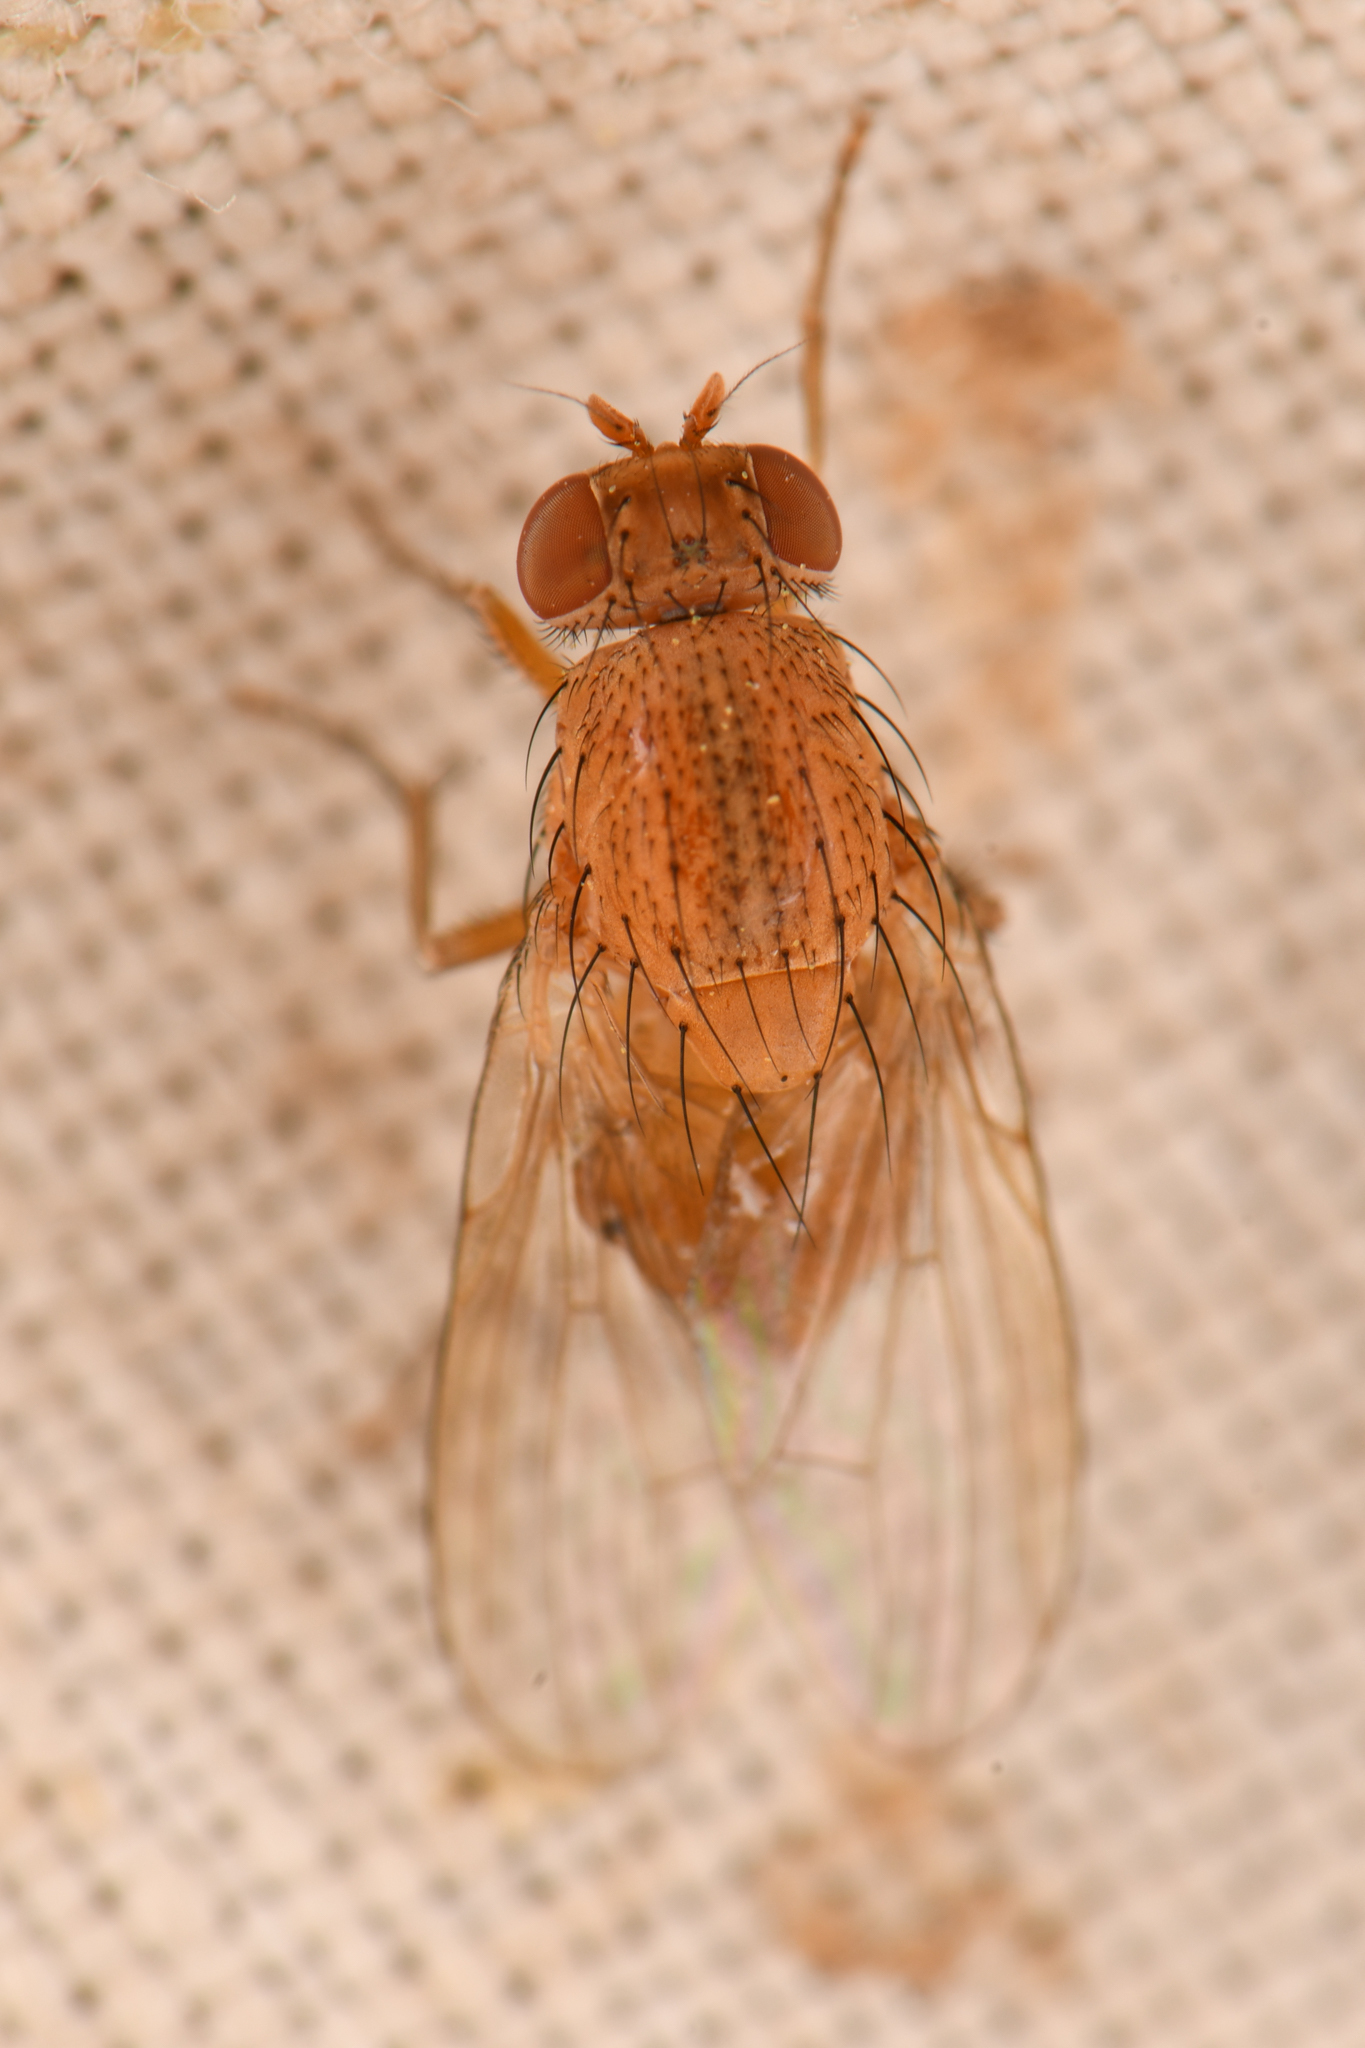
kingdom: Animalia
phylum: Arthropoda
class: Insecta
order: Diptera
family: Lauxaniidae
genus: Minettia
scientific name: Minettia flaveola
